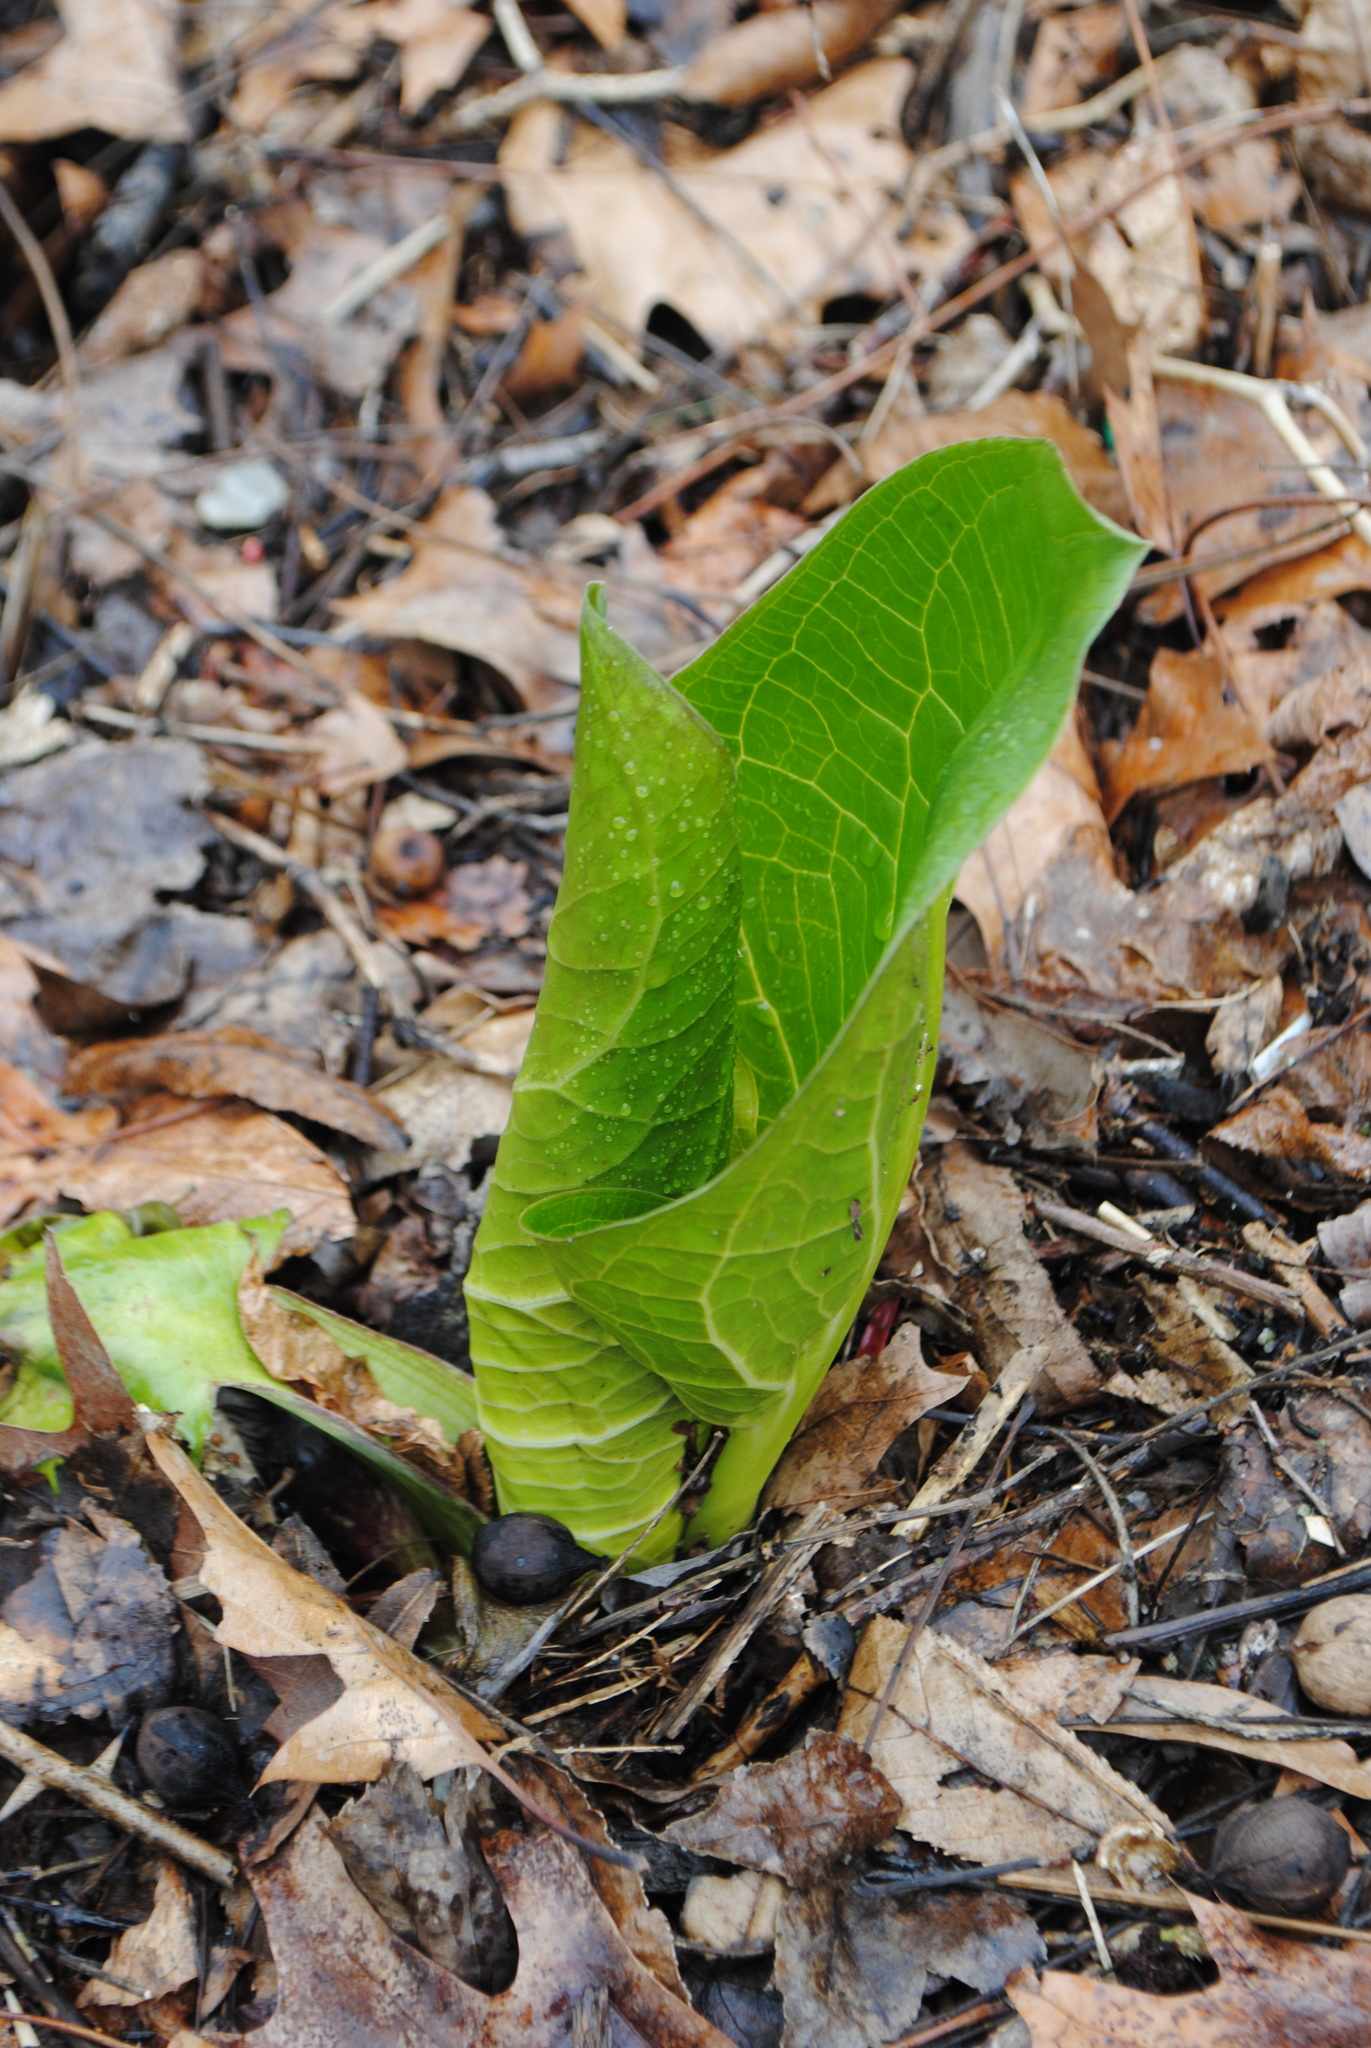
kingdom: Plantae
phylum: Tracheophyta
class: Liliopsida
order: Alismatales
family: Araceae
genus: Symplocarpus
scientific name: Symplocarpus foetidus
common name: Eastern skunk cabbage
